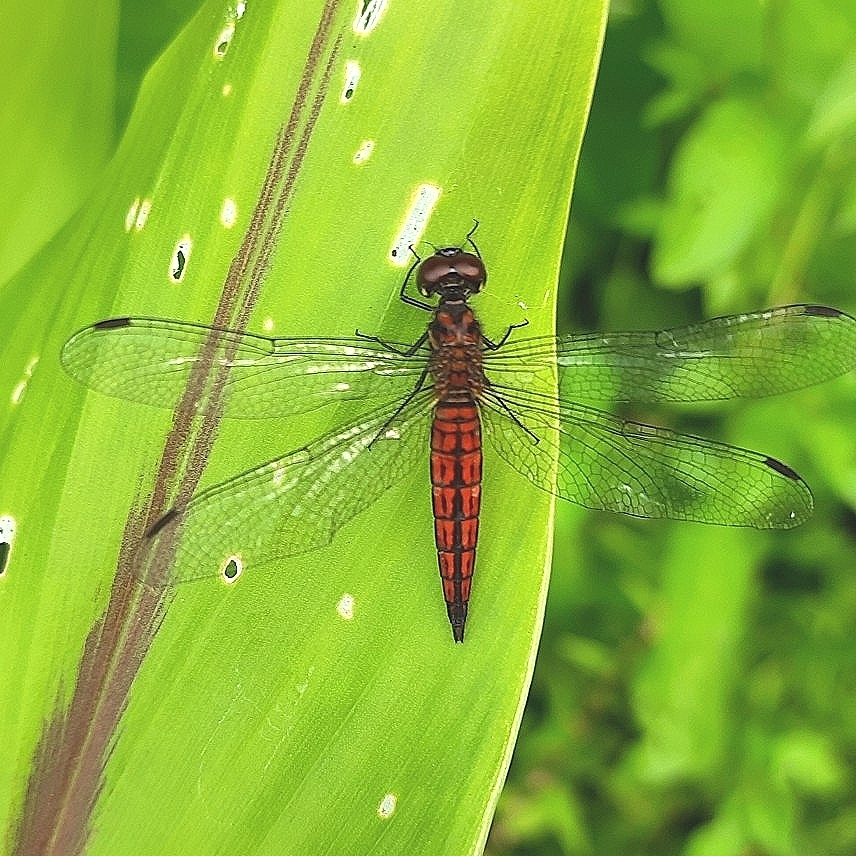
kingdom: Animalia
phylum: Arthropoda
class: Insecta
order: Odonata
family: Libellulidae
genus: Lyriothemis
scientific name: Lyriothemis acigastra
